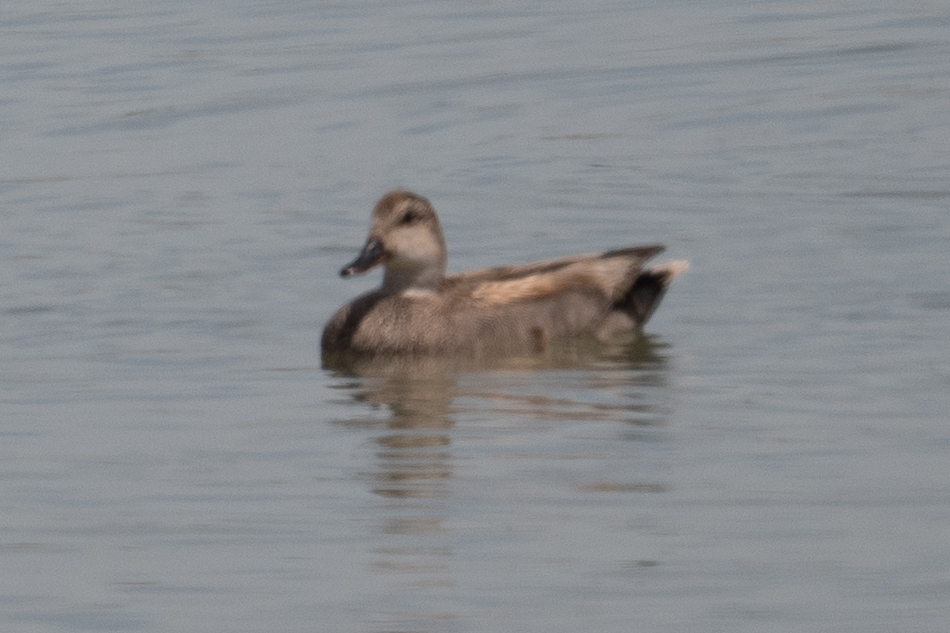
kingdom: Animalia
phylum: Chordata
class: Aves
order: Anseriformes
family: Anatidae
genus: Mareca
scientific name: Mareca strepera
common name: Gadwall
